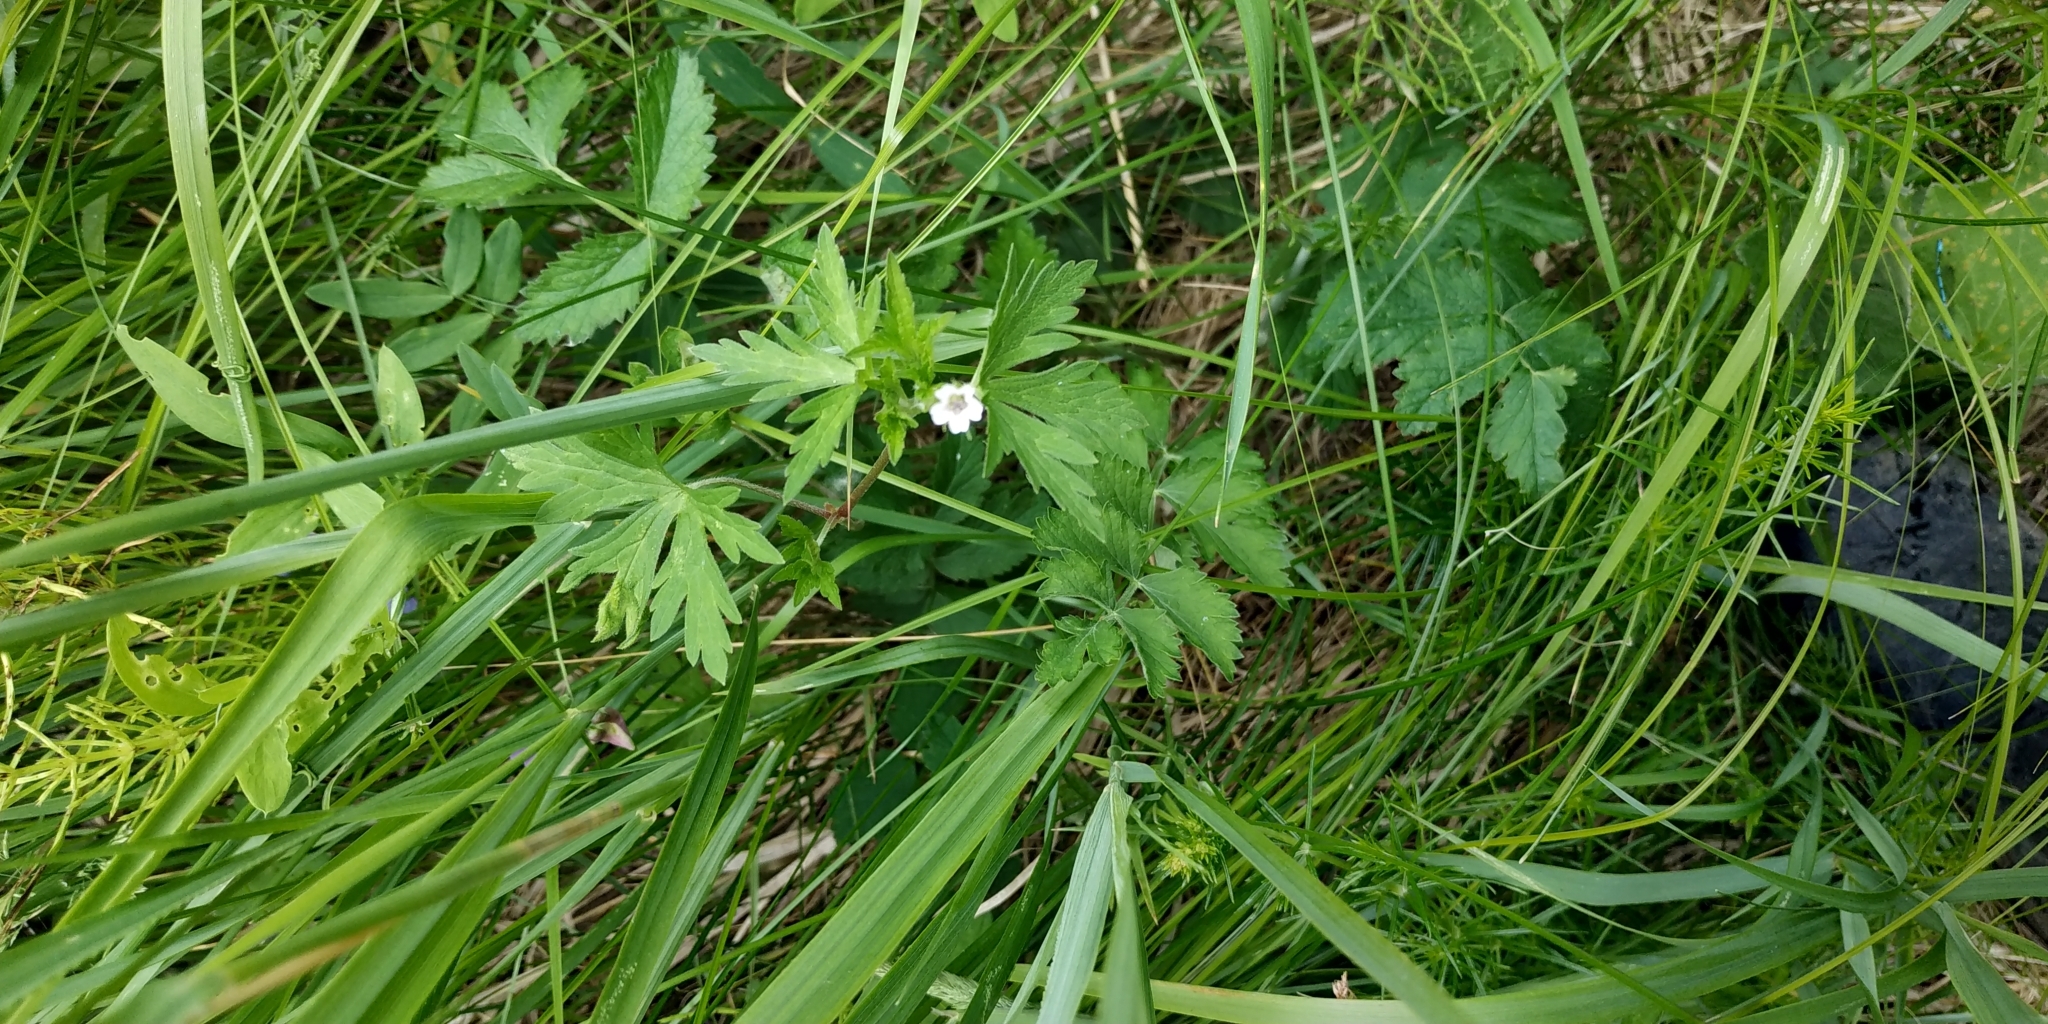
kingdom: Plantae
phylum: Tracheophyta
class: Magnoliopsida
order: Geraniales
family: Geraniaceae
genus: Geranium
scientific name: Geranium sibiricum
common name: Siberian crane's-bill
